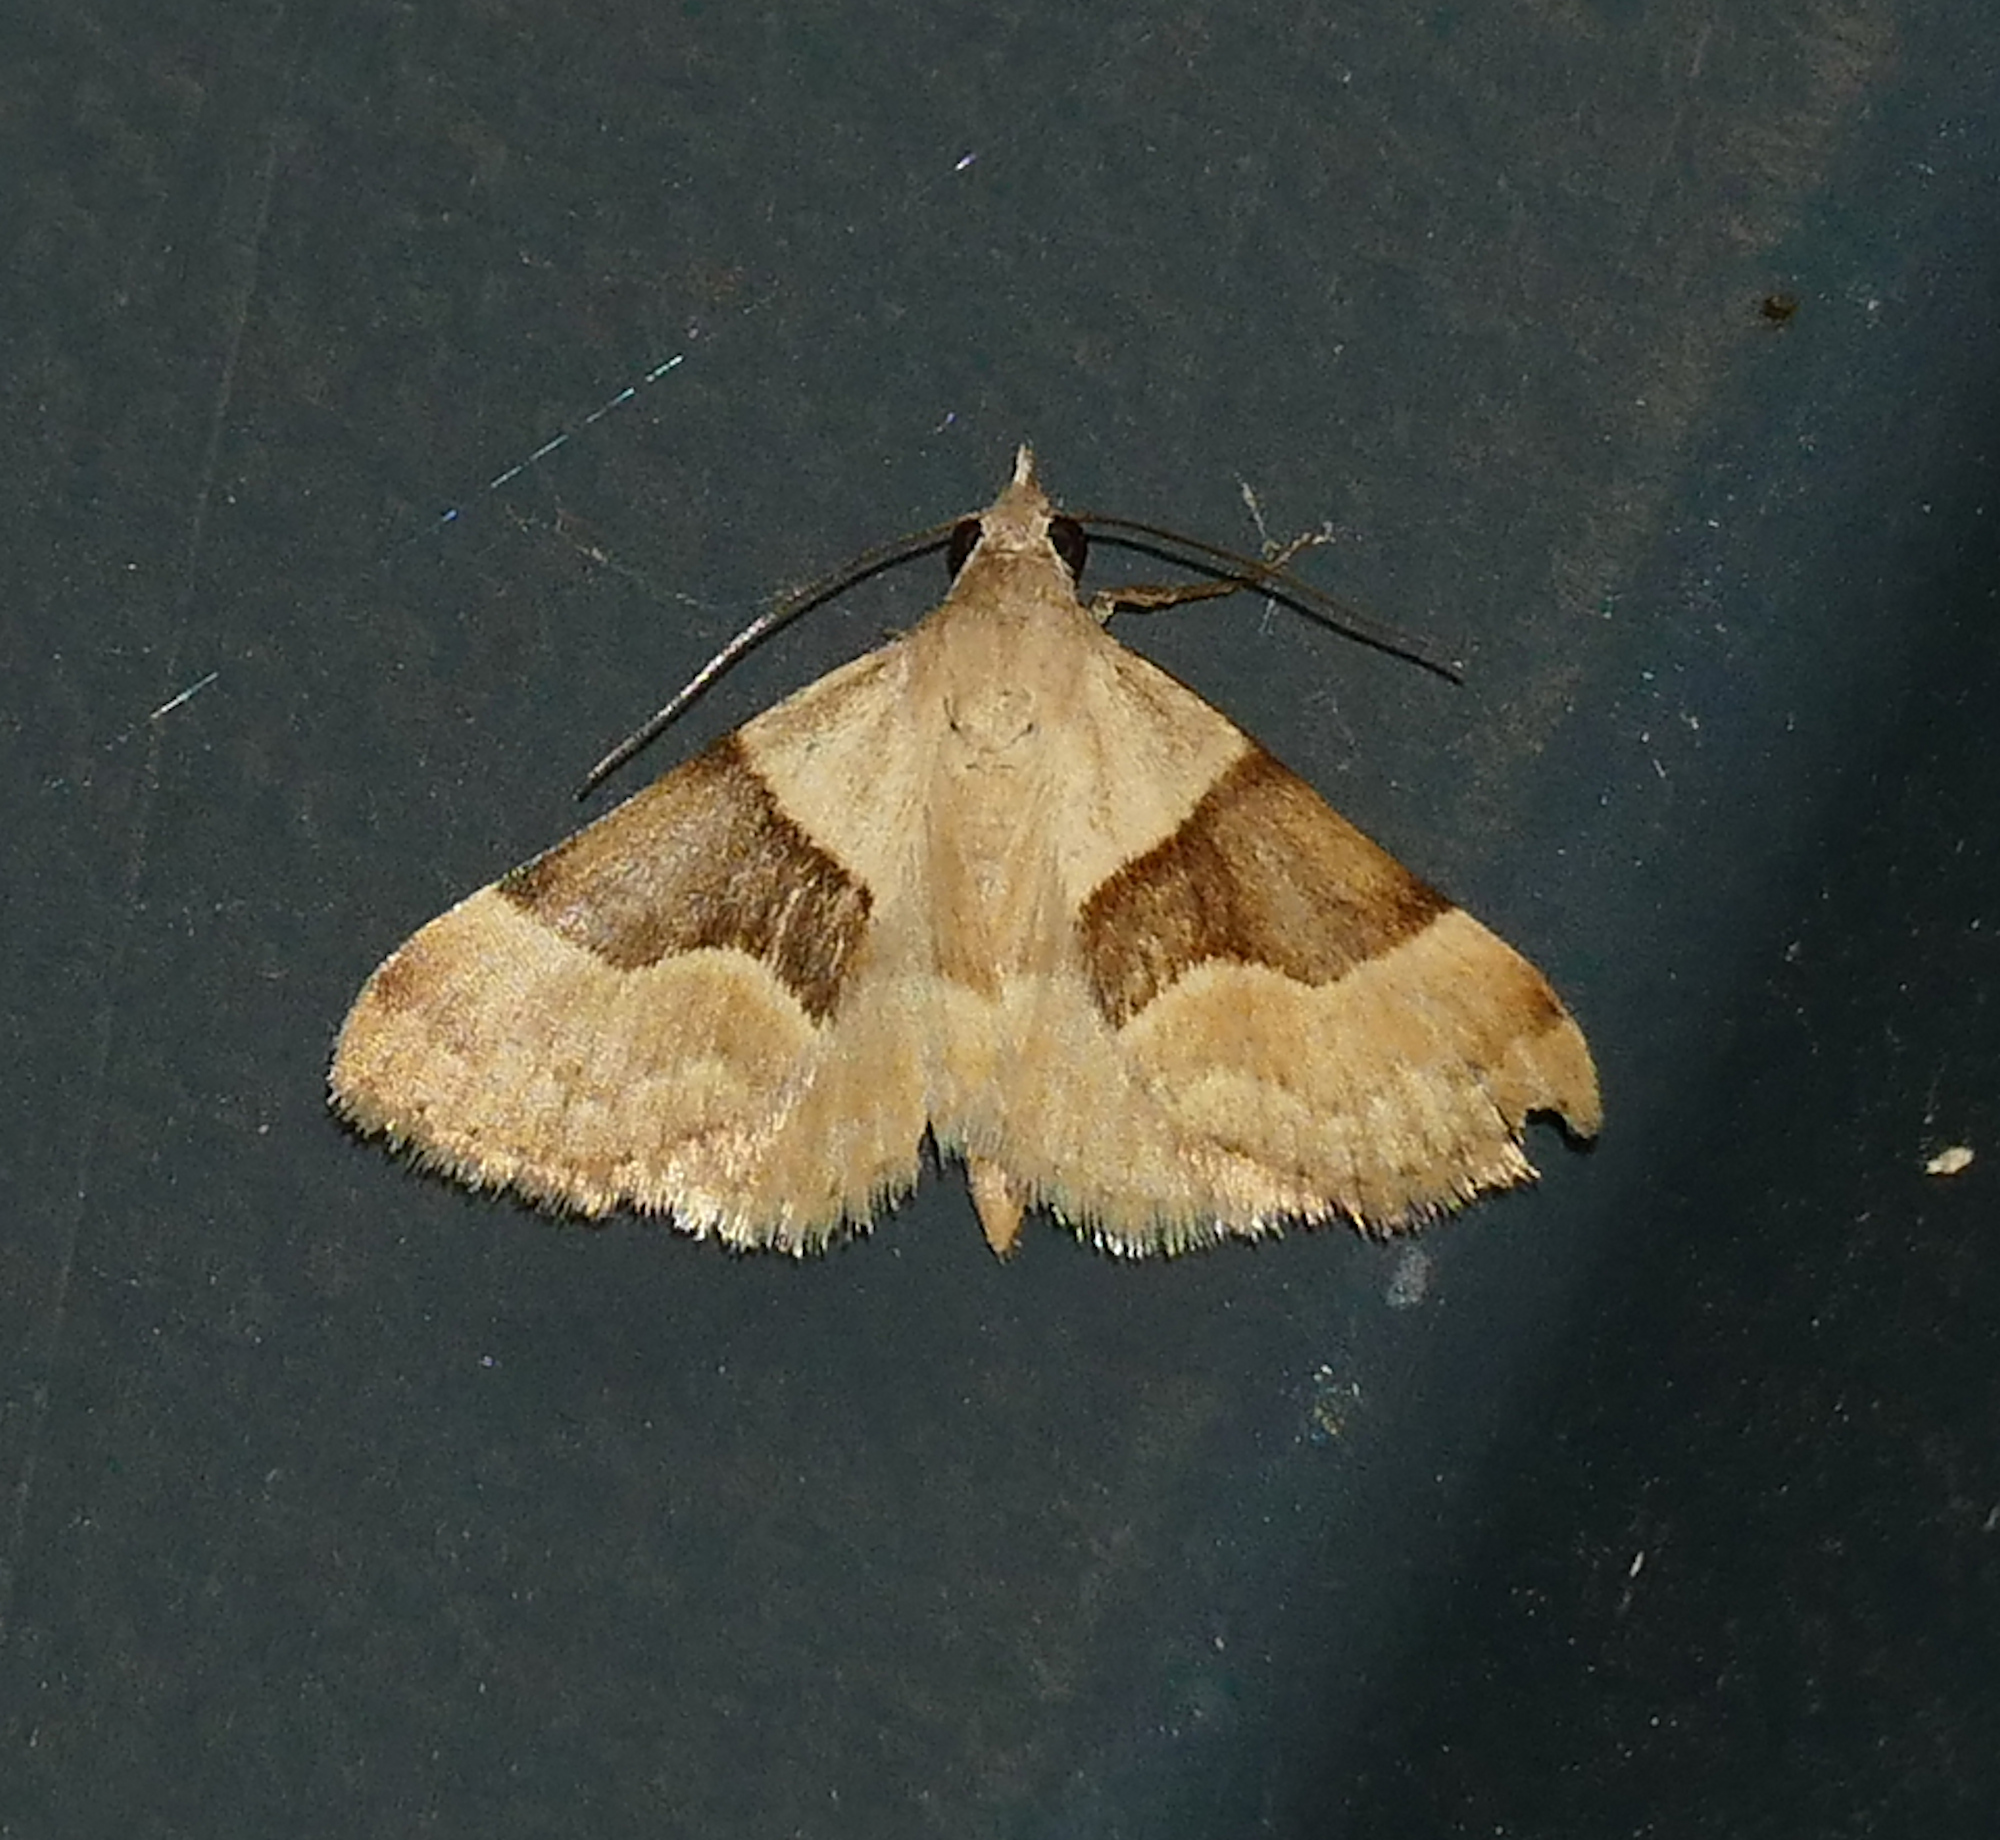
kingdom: Animalia
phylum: Arthropoda
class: Insecta
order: Lepidoptera
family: Erebidae
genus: Hemeroplanis
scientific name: Hemeroplanis incusalis
